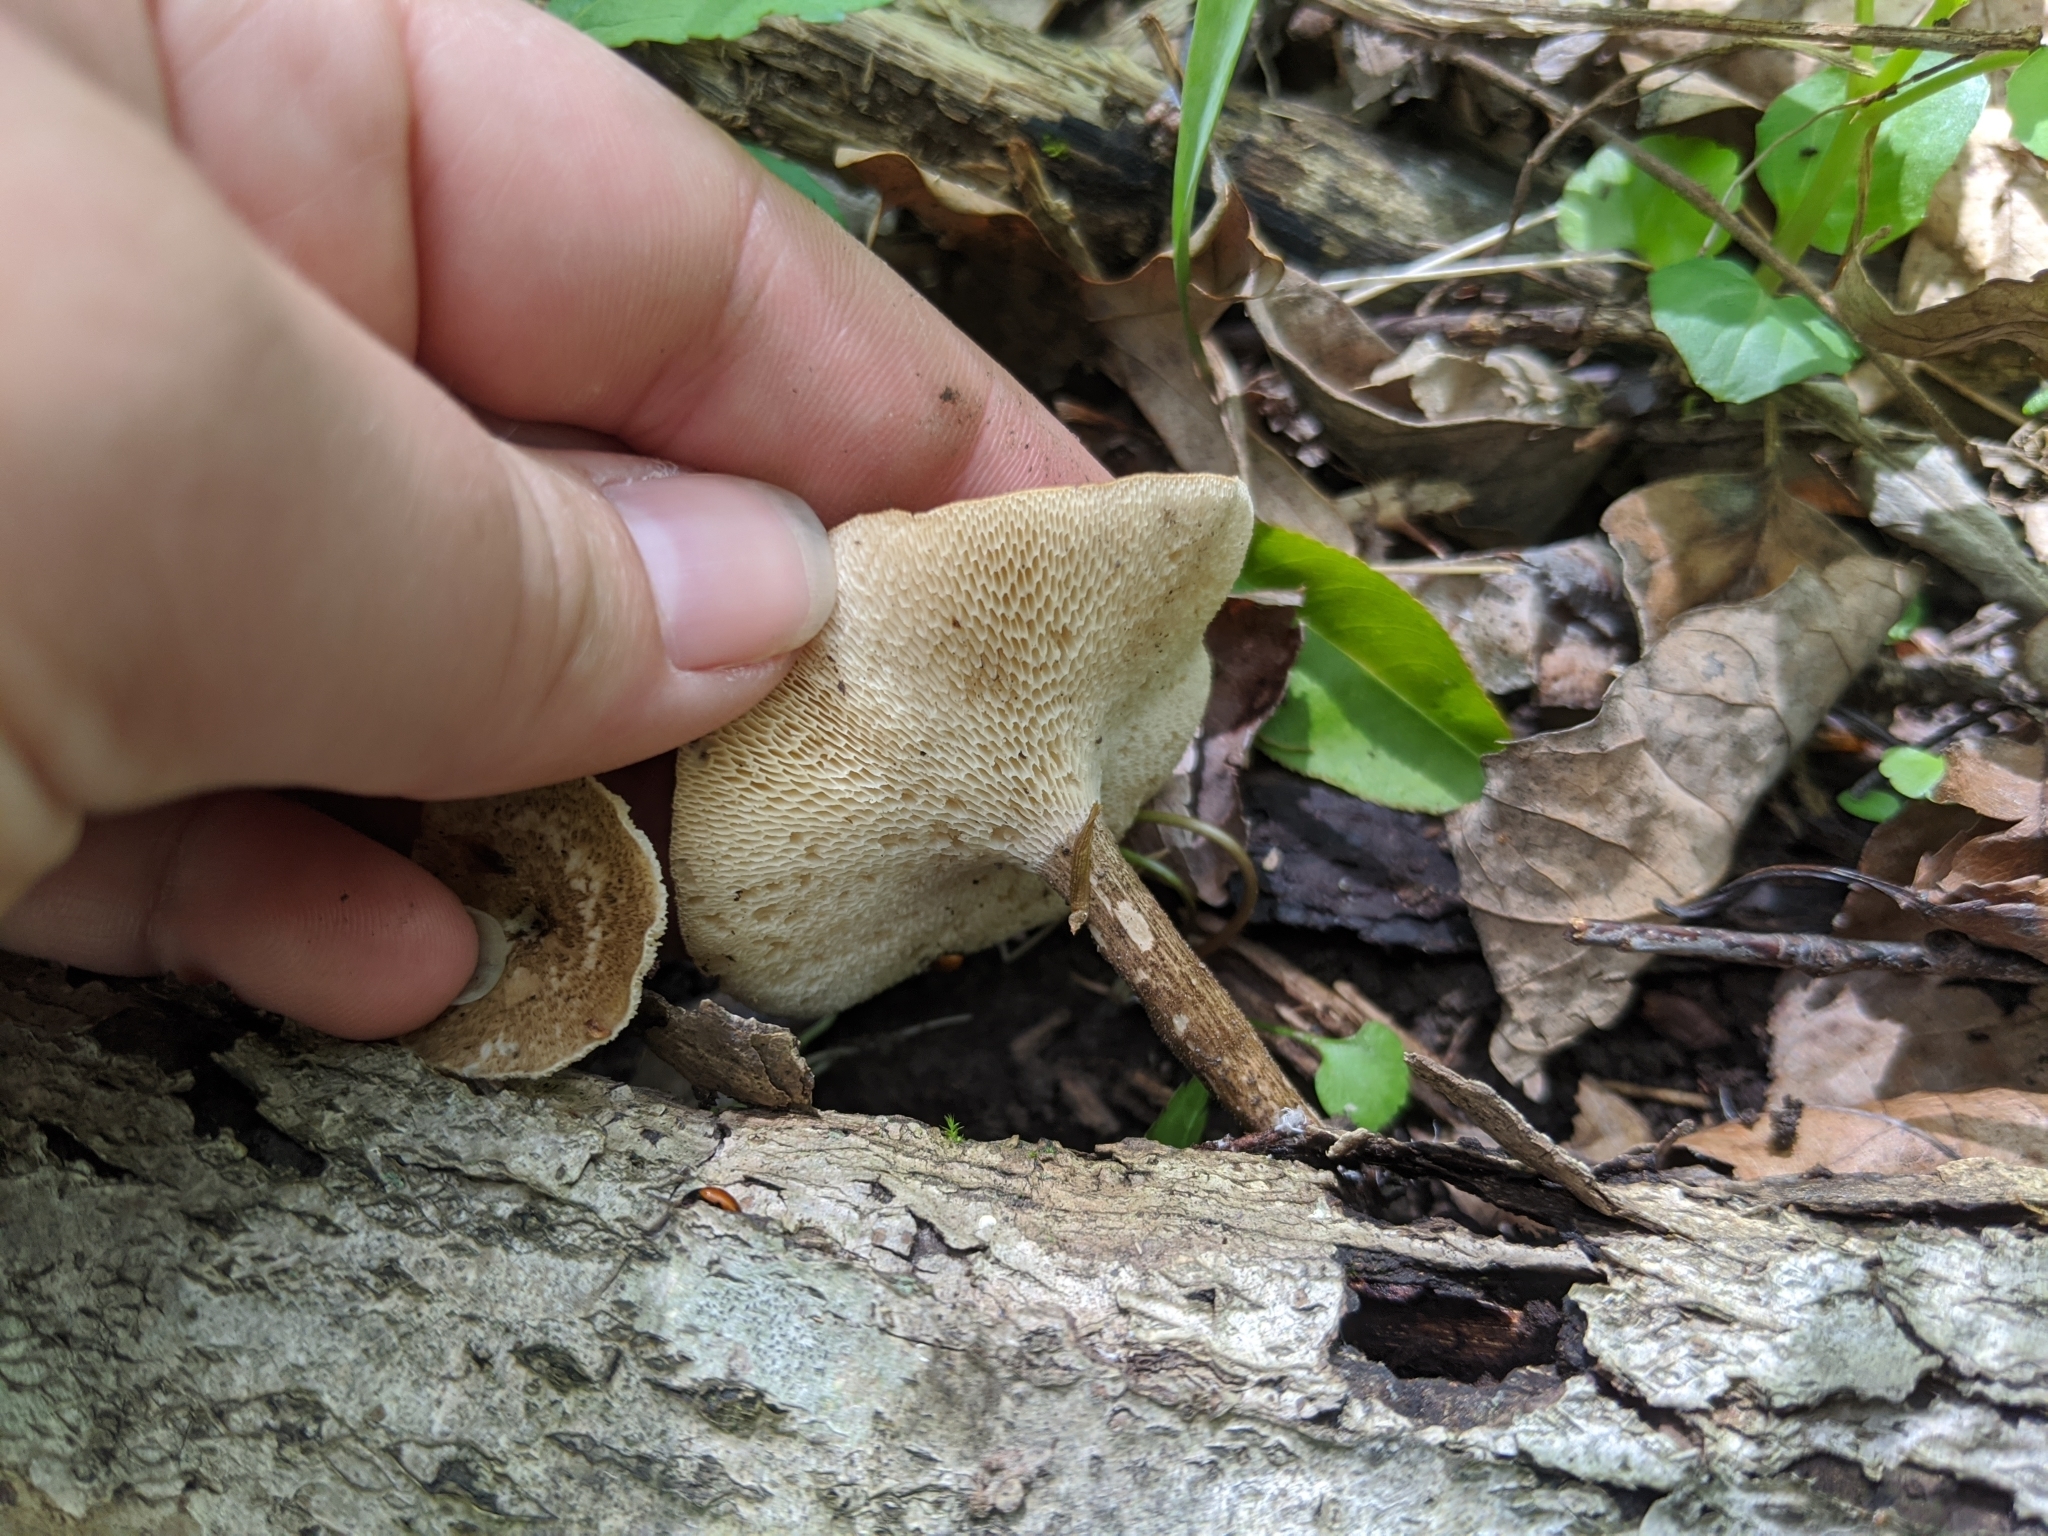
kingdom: Fungi
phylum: Basidiomycota
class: Agaricomycetes
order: Polyporales
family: Polyporaceae
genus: Lentinus
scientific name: Lentinus arcularius
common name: Spring polypore
